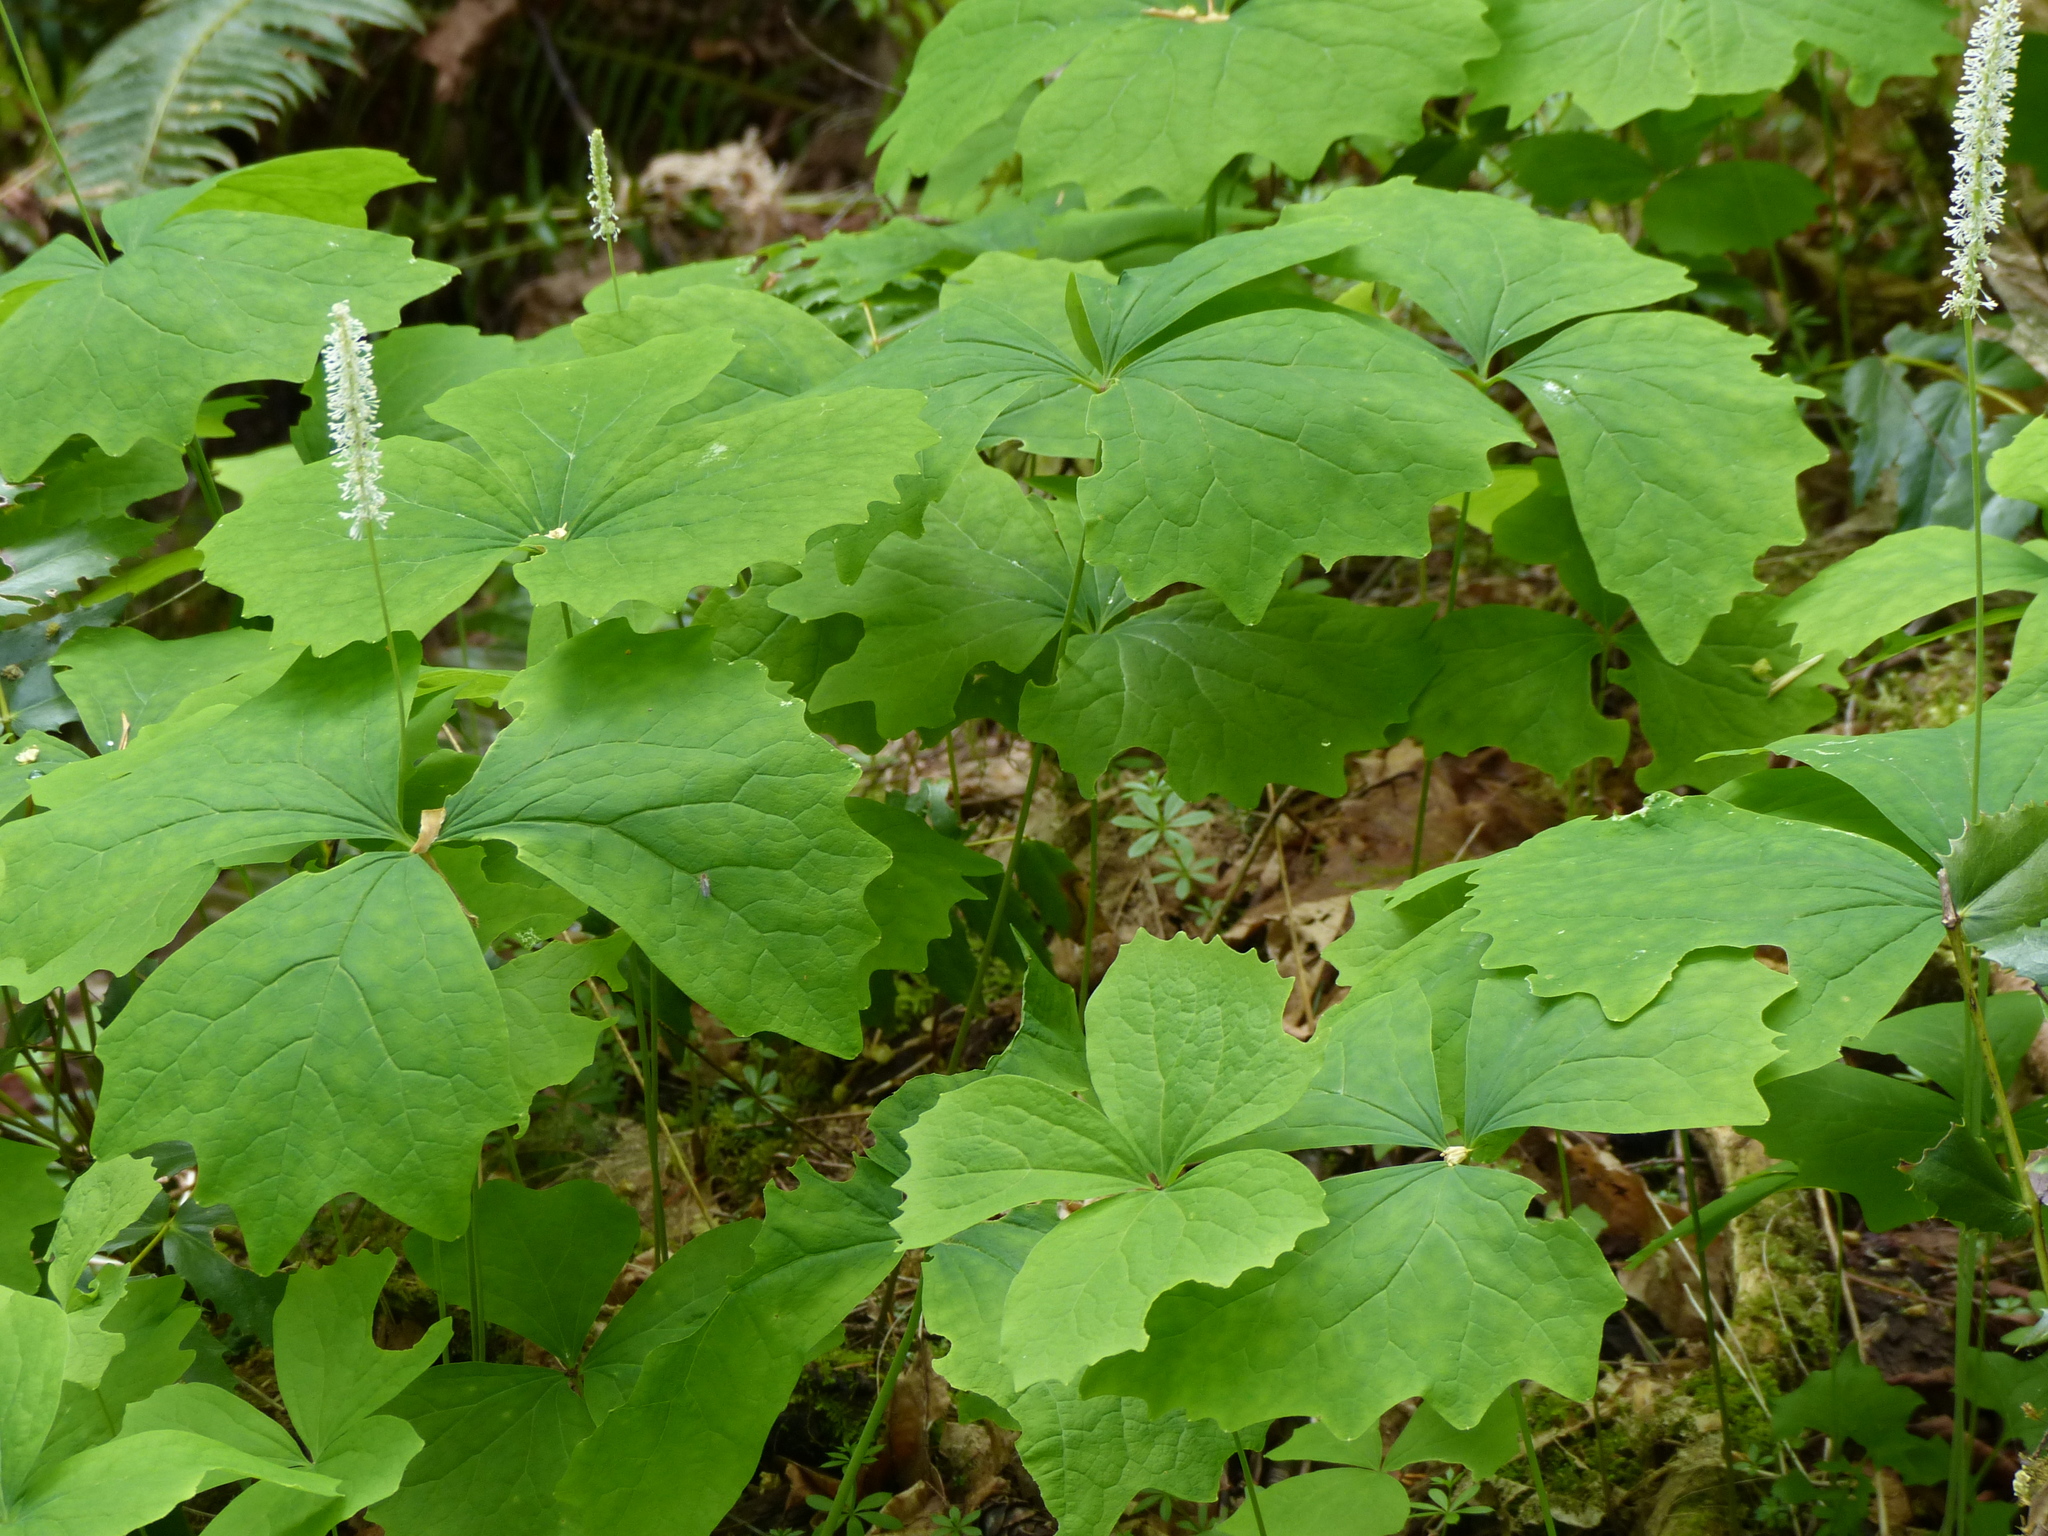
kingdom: Plantae
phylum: Tracheophyta
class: Magnoliopsida
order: Ranunculales
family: Berberidaceae
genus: Achlys
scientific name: Achlys triphylla
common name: Vanilla-leaf
